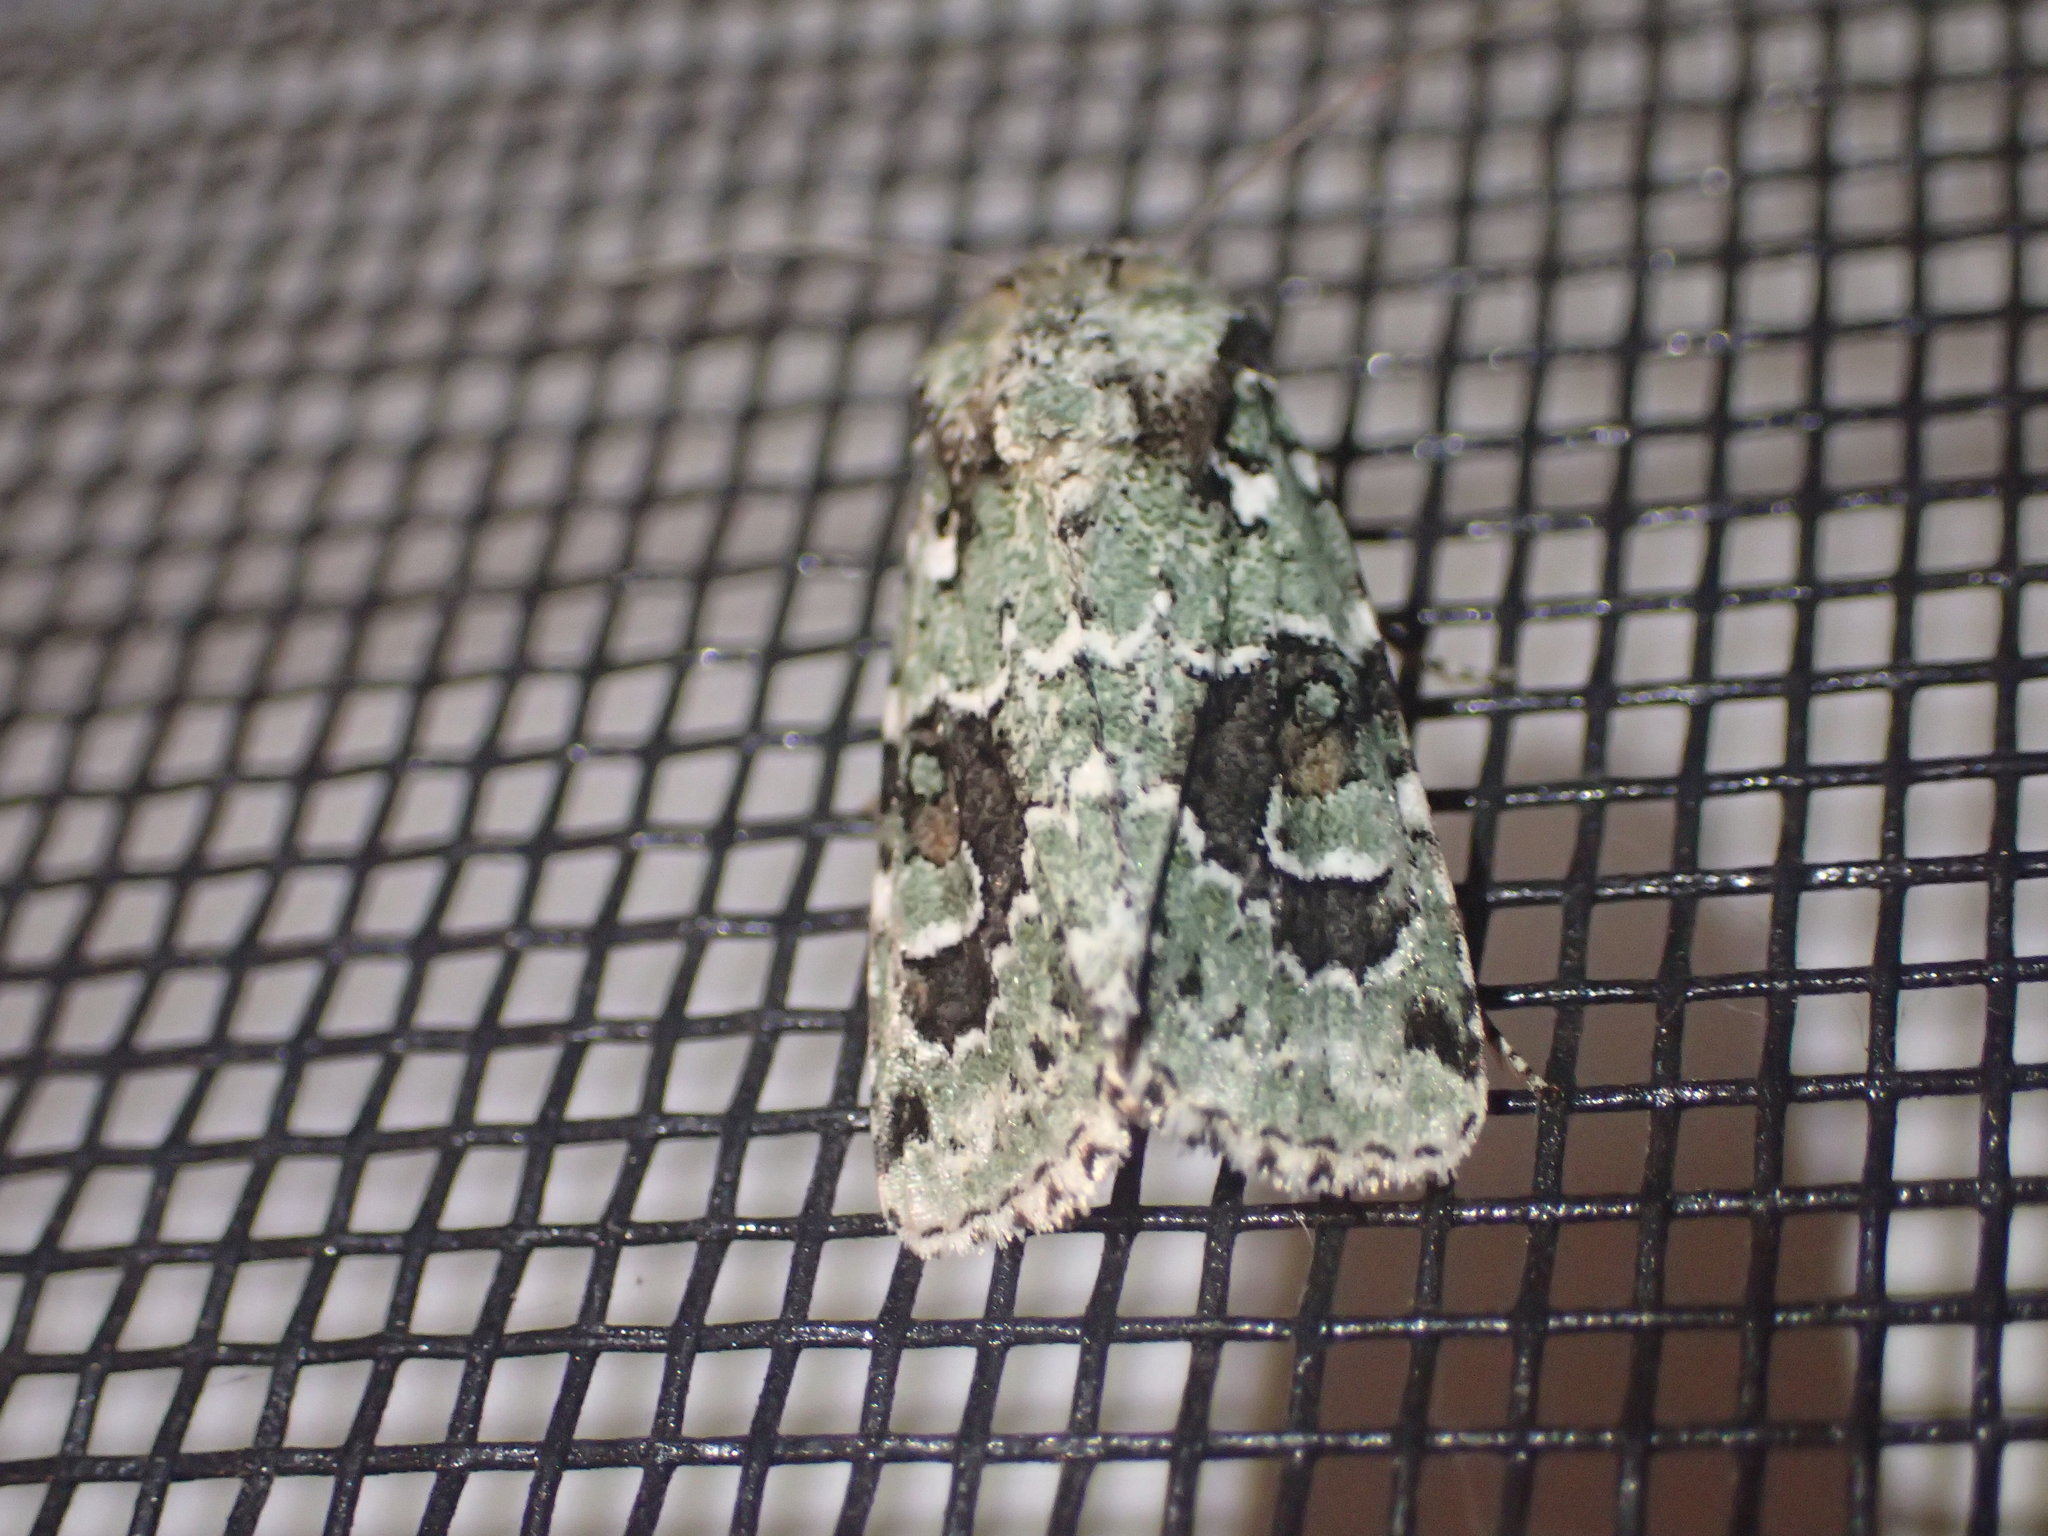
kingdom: Animalia
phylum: Arthropoda
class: Insecta
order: Lepidoptera
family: Noctuidae
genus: Lacinipolia
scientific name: Lacinipolia laudabilis
